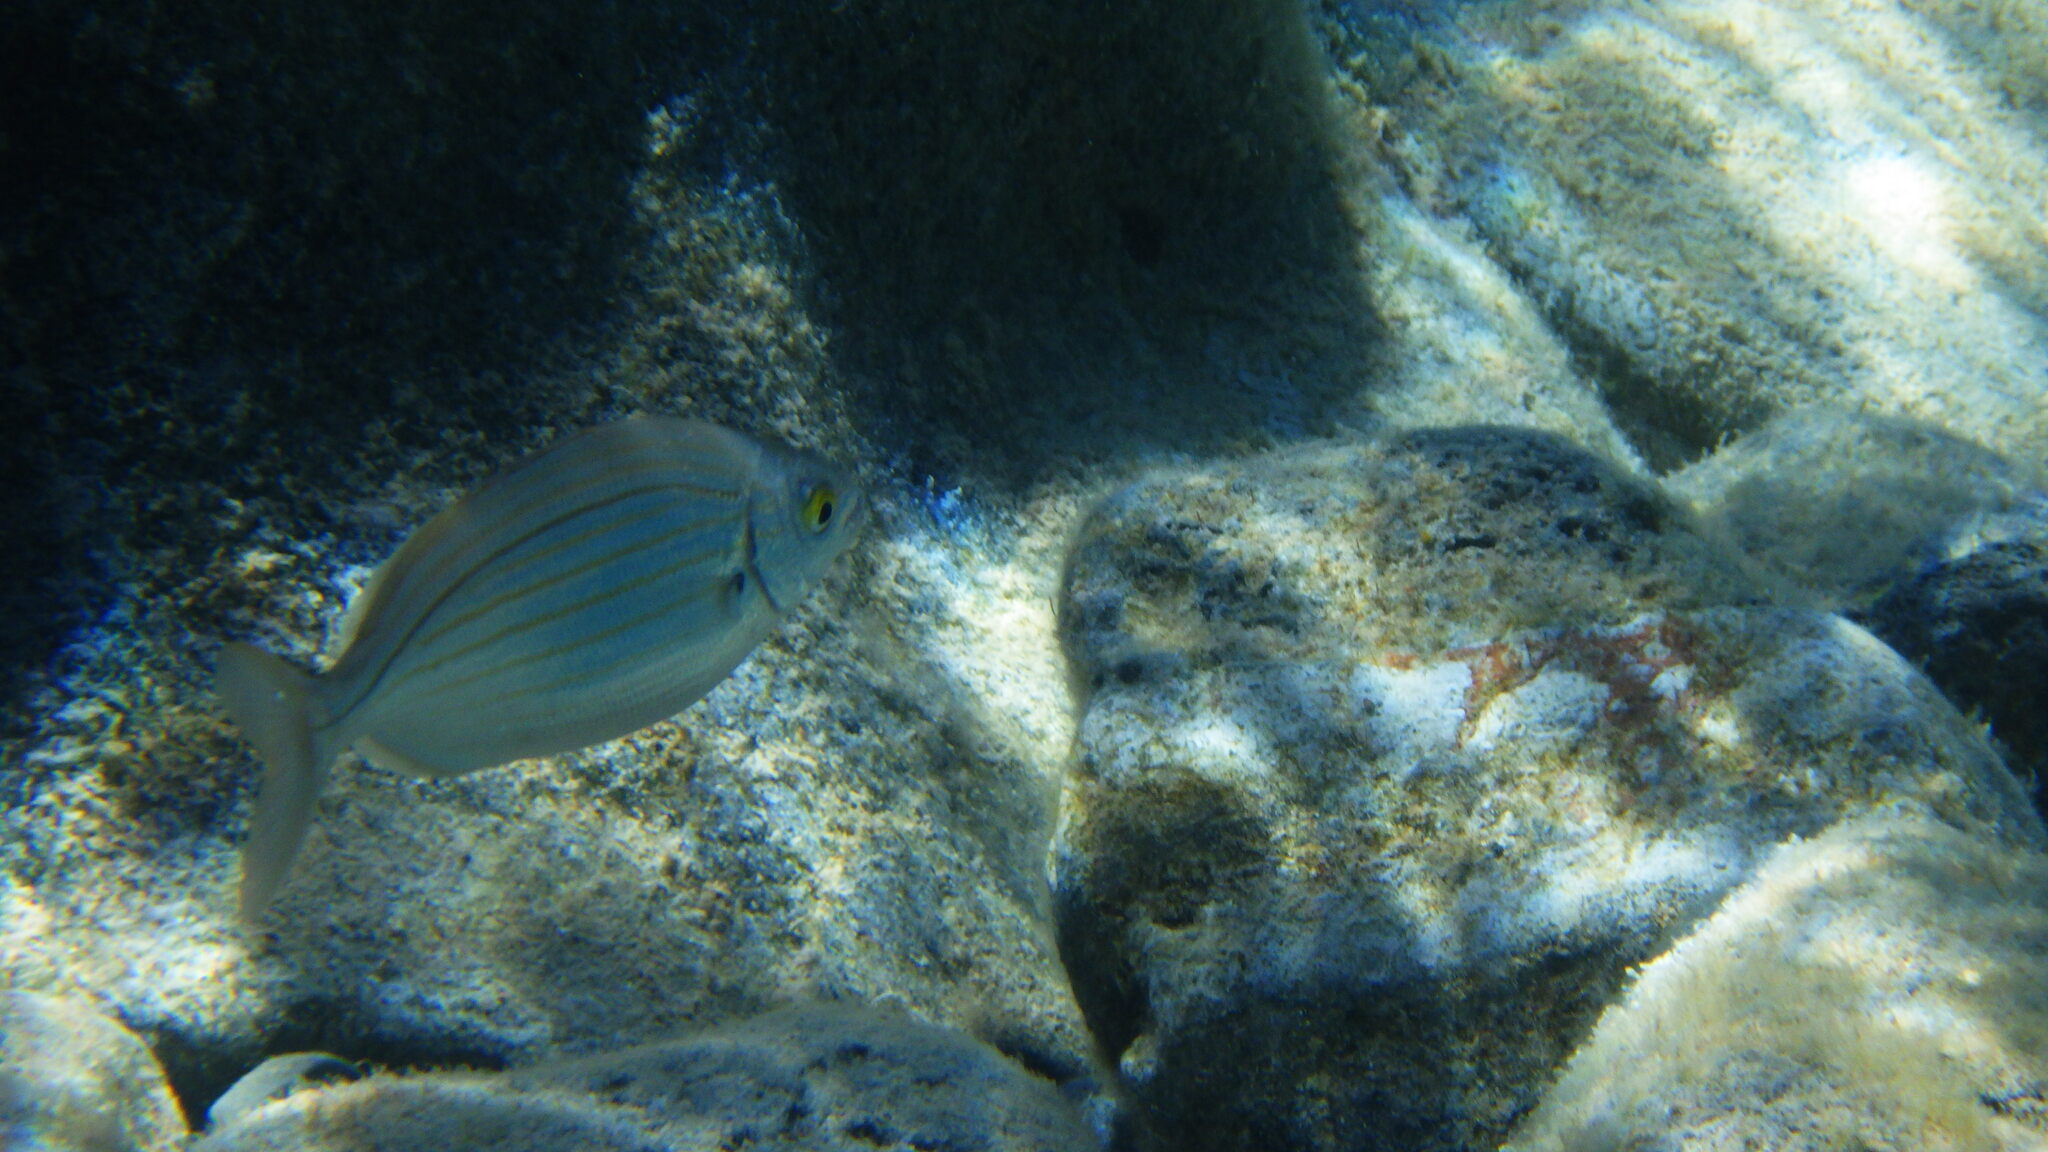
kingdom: Animalia
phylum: Chordata
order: Perciformes
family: Sparidae
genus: Sarpa
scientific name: Sarpa salpa
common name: Salema
